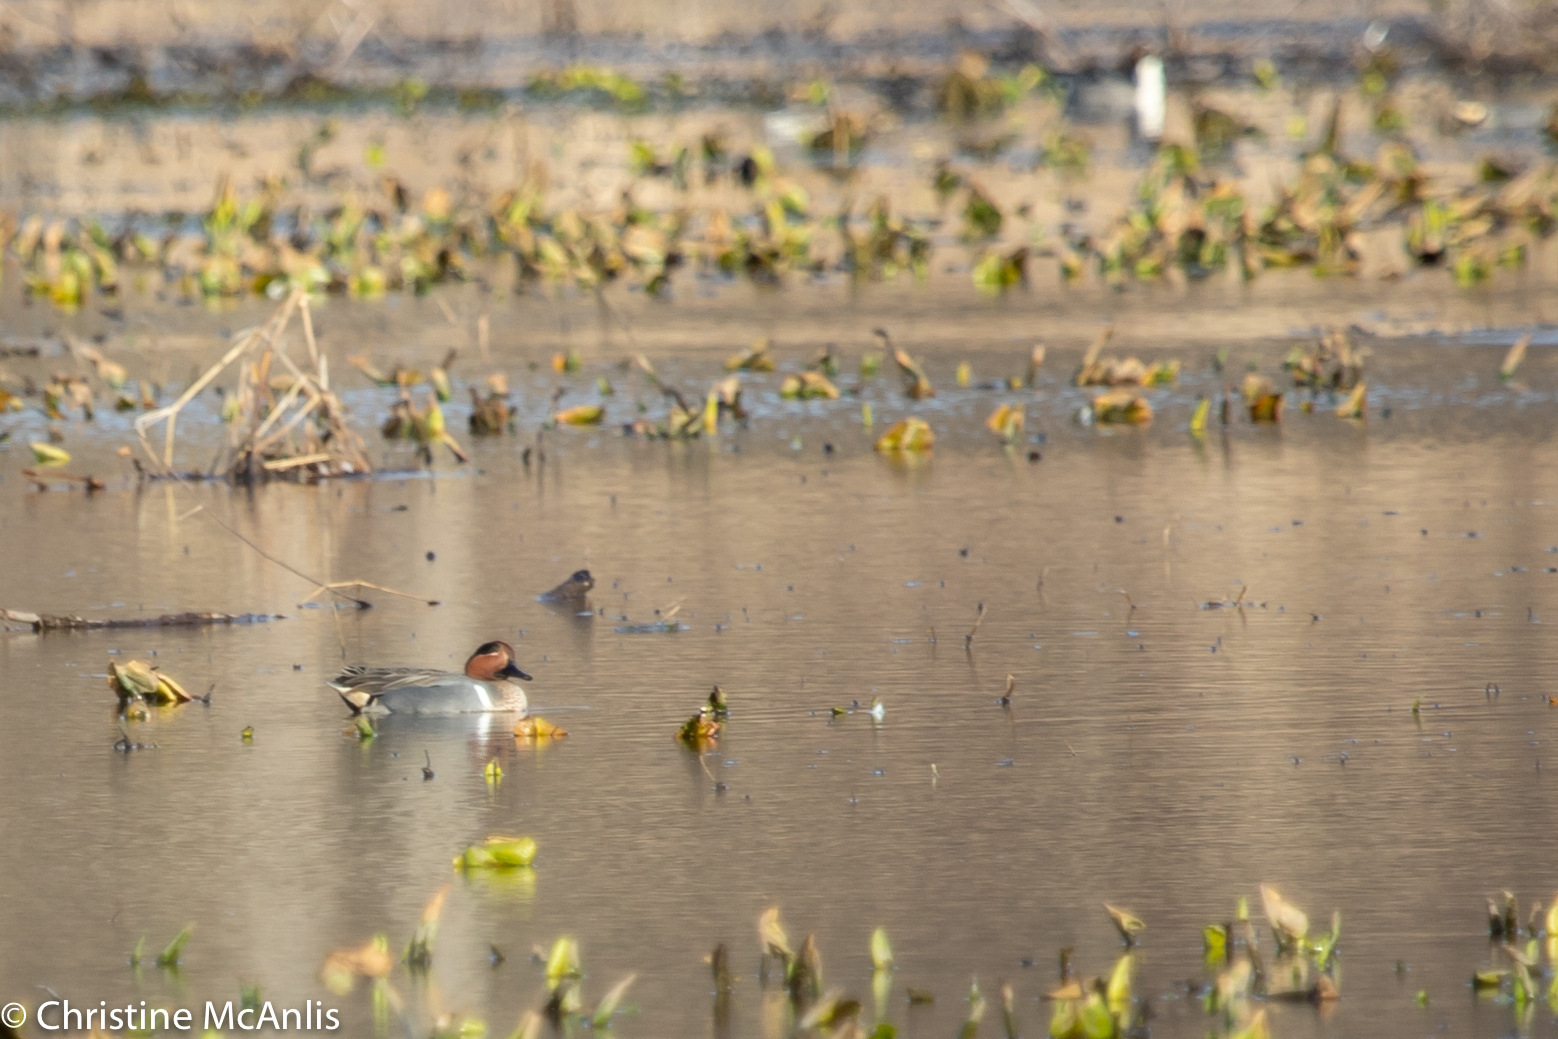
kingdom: Animalia
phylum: Chordata
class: Aves
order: Anseriformes
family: Anatidae
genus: Anas
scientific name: Anas crecca
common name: Eurasian teal
